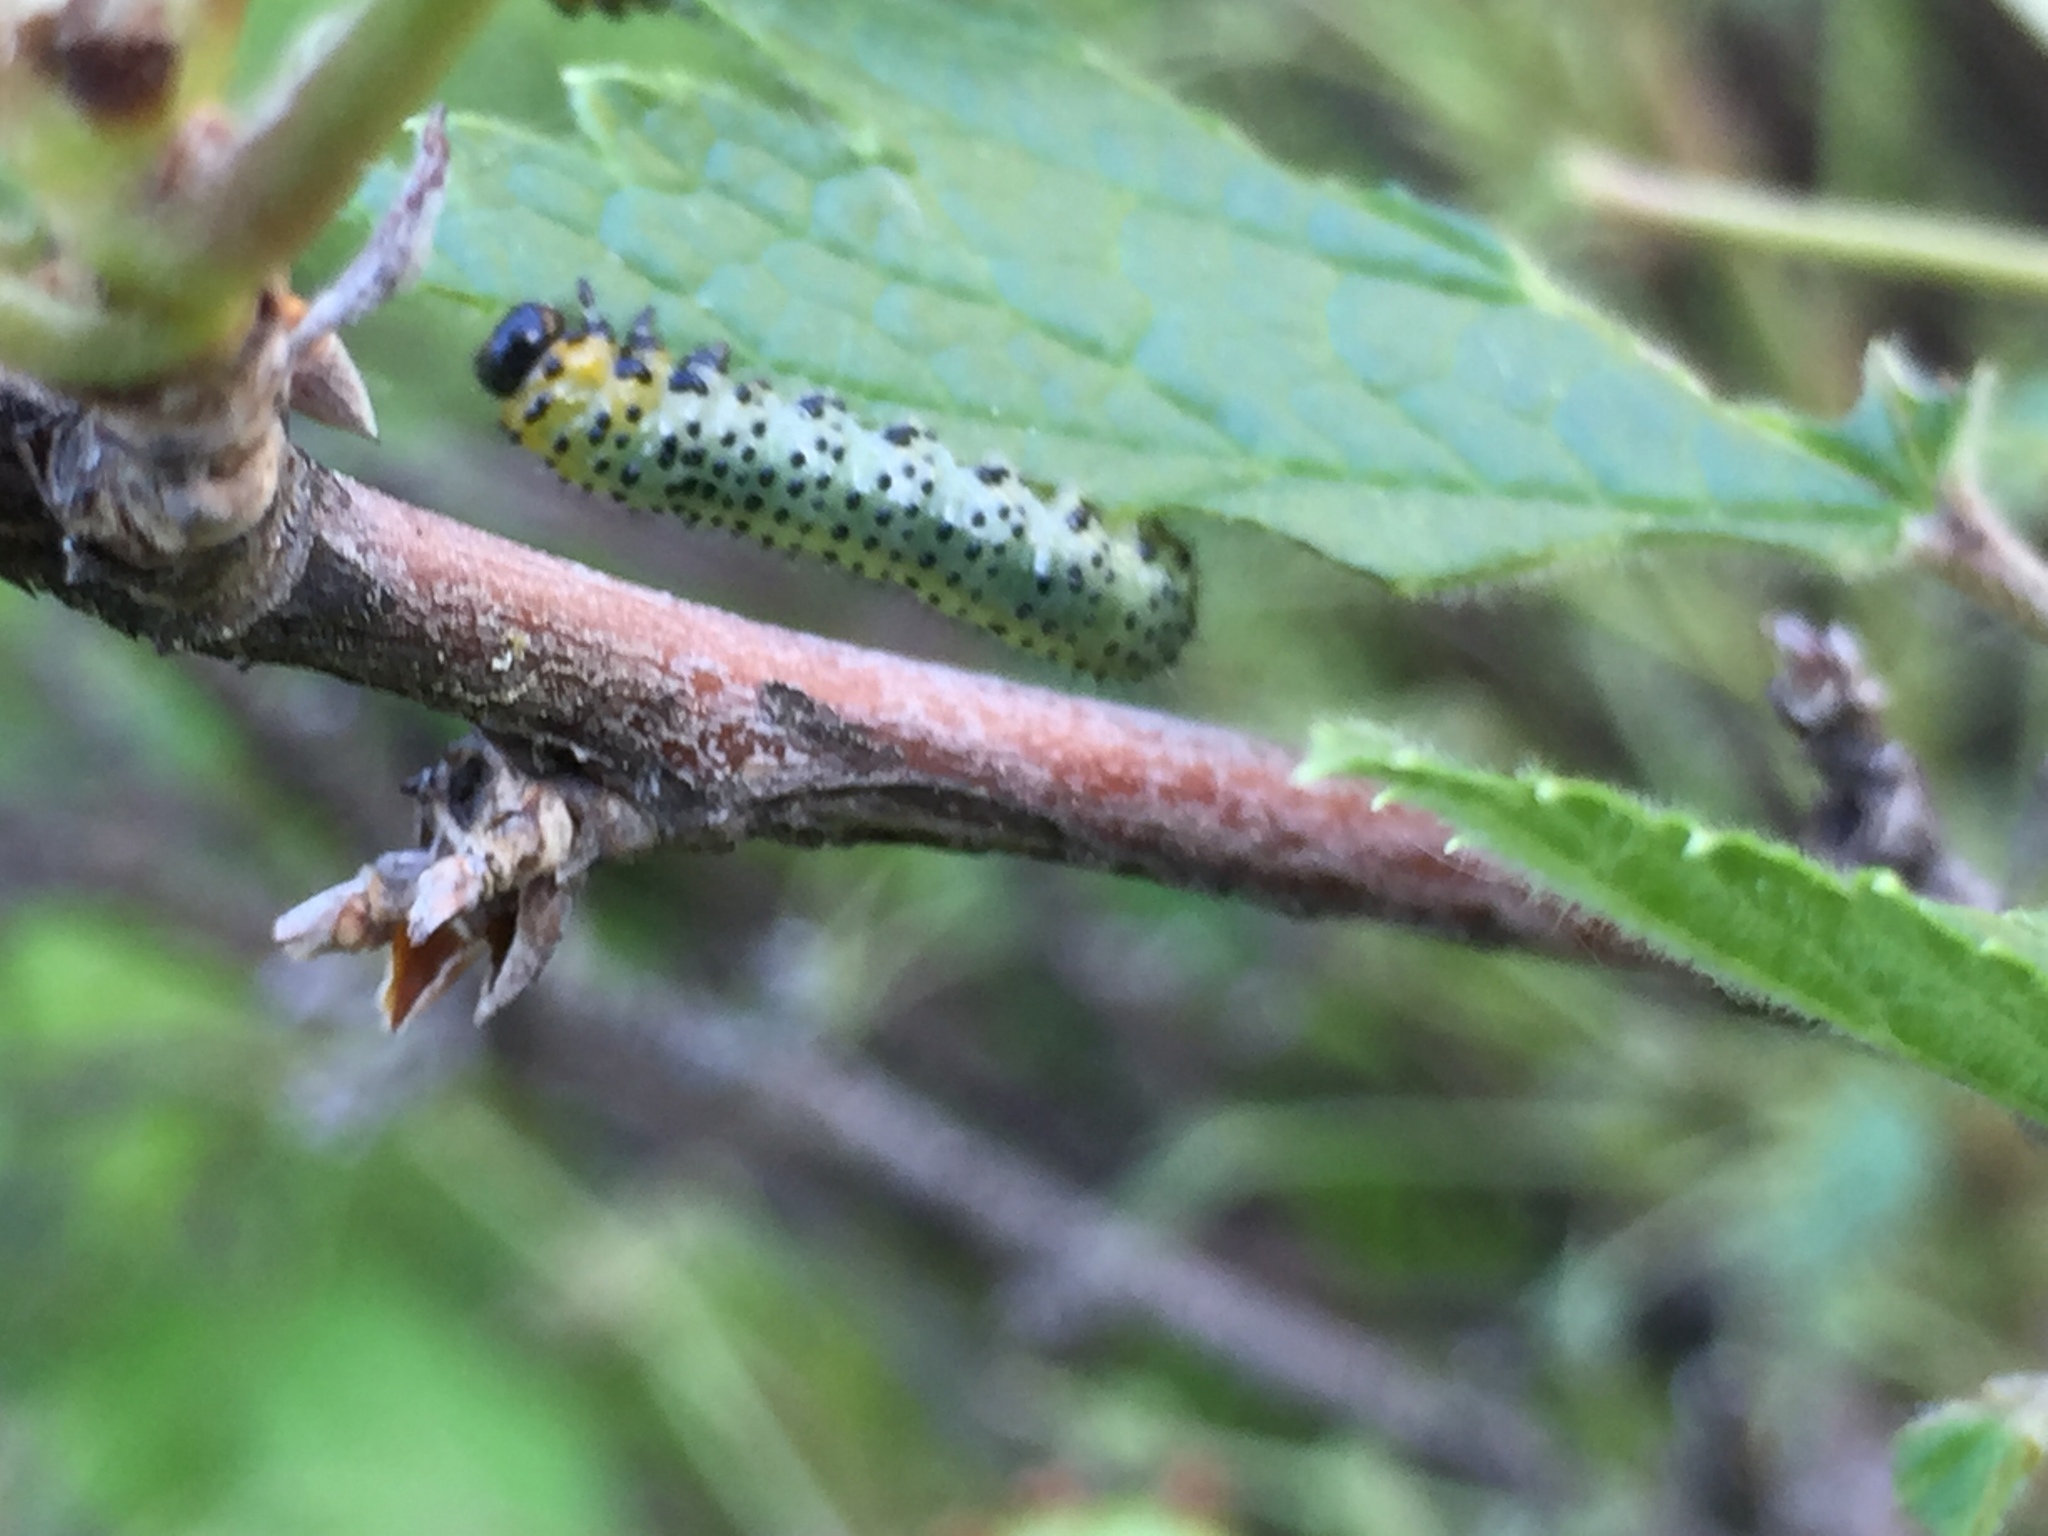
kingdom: Animalia
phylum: Arthropoda
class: Insecta
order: Hymenoptera
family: Tenthredinidae
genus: Nematus
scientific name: Nematus ribesii
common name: Imported currantworm
